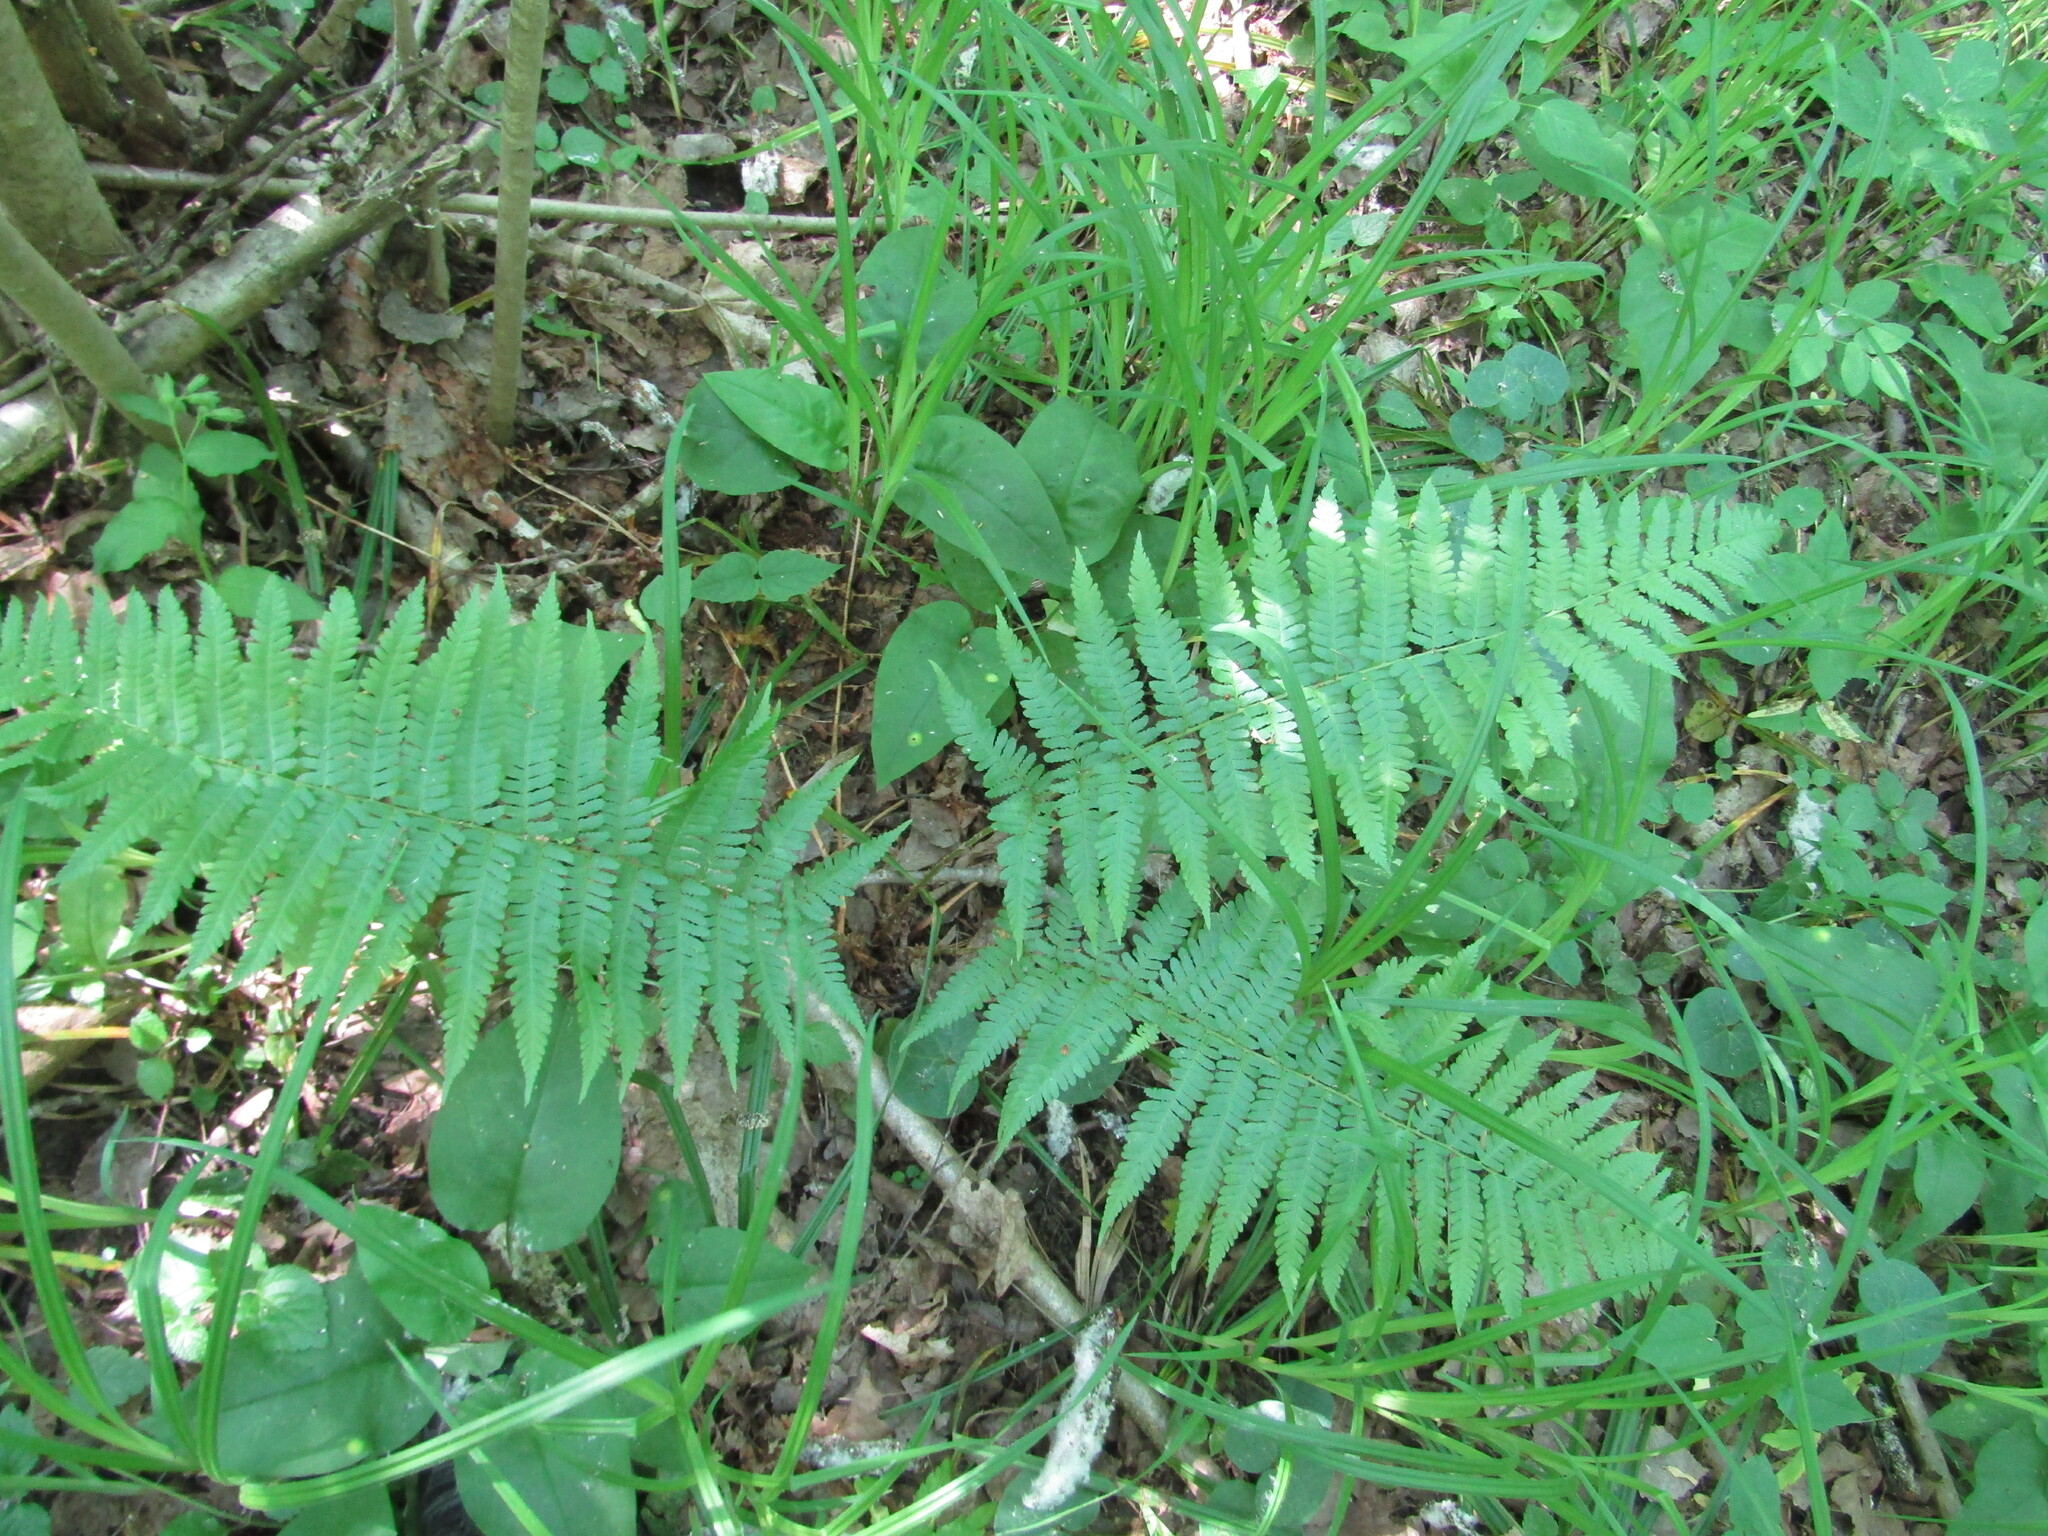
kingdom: Plantae
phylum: Tracheophyta
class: Polypodiopsida
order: Polypodiales
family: Dryopteridaceae
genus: Dryopteris
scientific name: Dryopteris filix-mas
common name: Male fern
